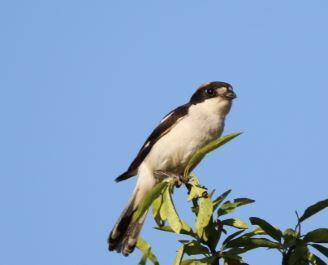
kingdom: Animalia
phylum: Chordata
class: Aves
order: Passeriformes
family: Laniidae
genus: Lanius
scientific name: Lanius senator
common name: Woodchat shrike
